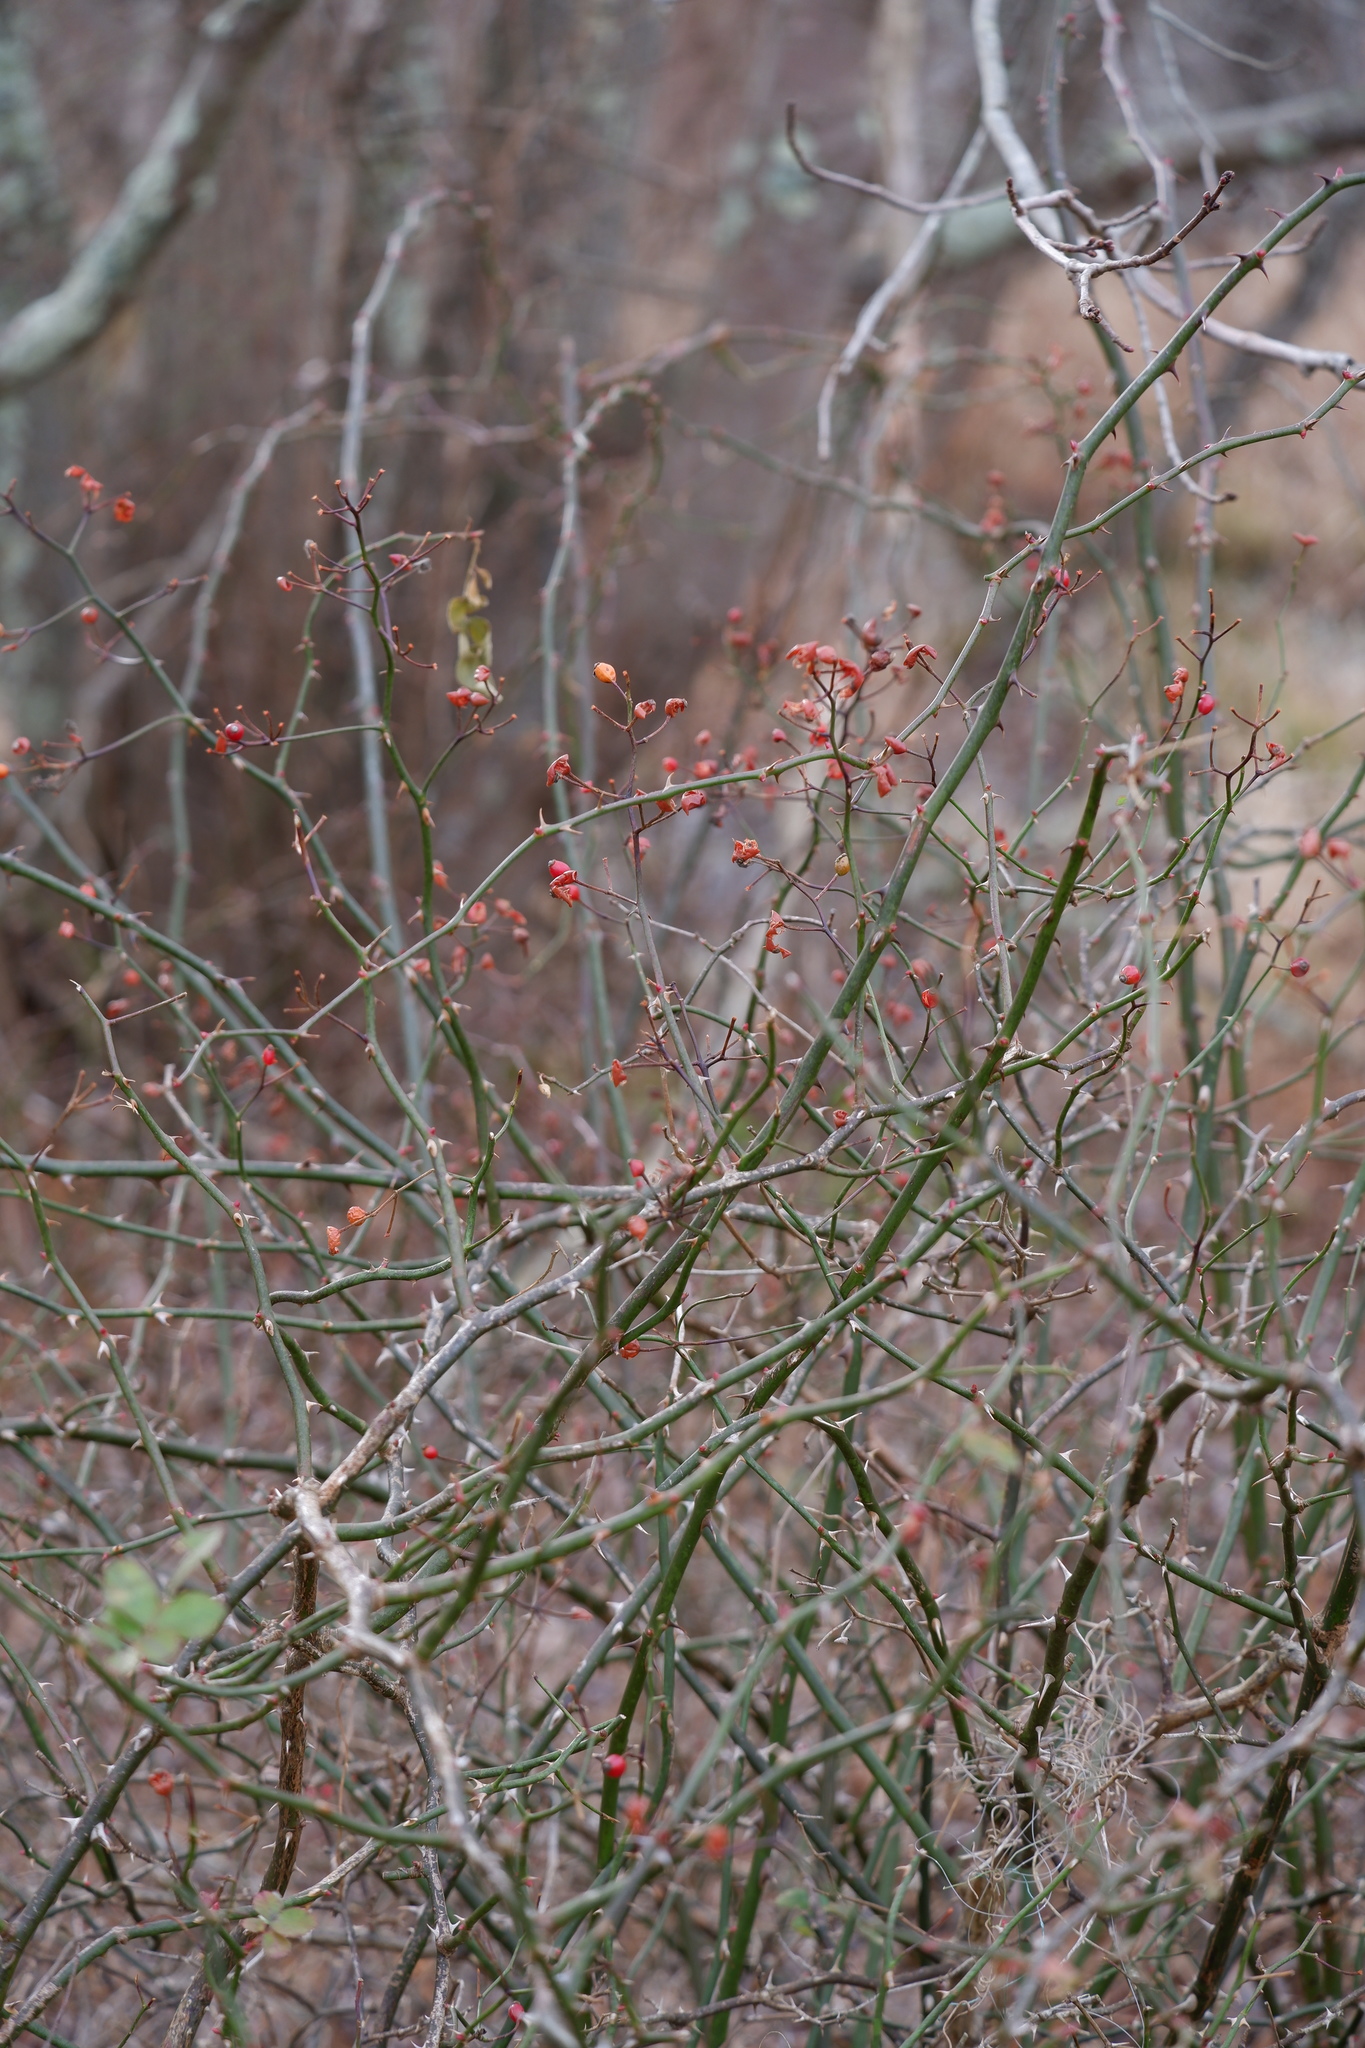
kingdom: Plantae
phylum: Tracheophyta
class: Magnoliopsida
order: Rosales
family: Rosaceae
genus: Rosa
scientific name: Rosa multiflora
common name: Multiflora rose
